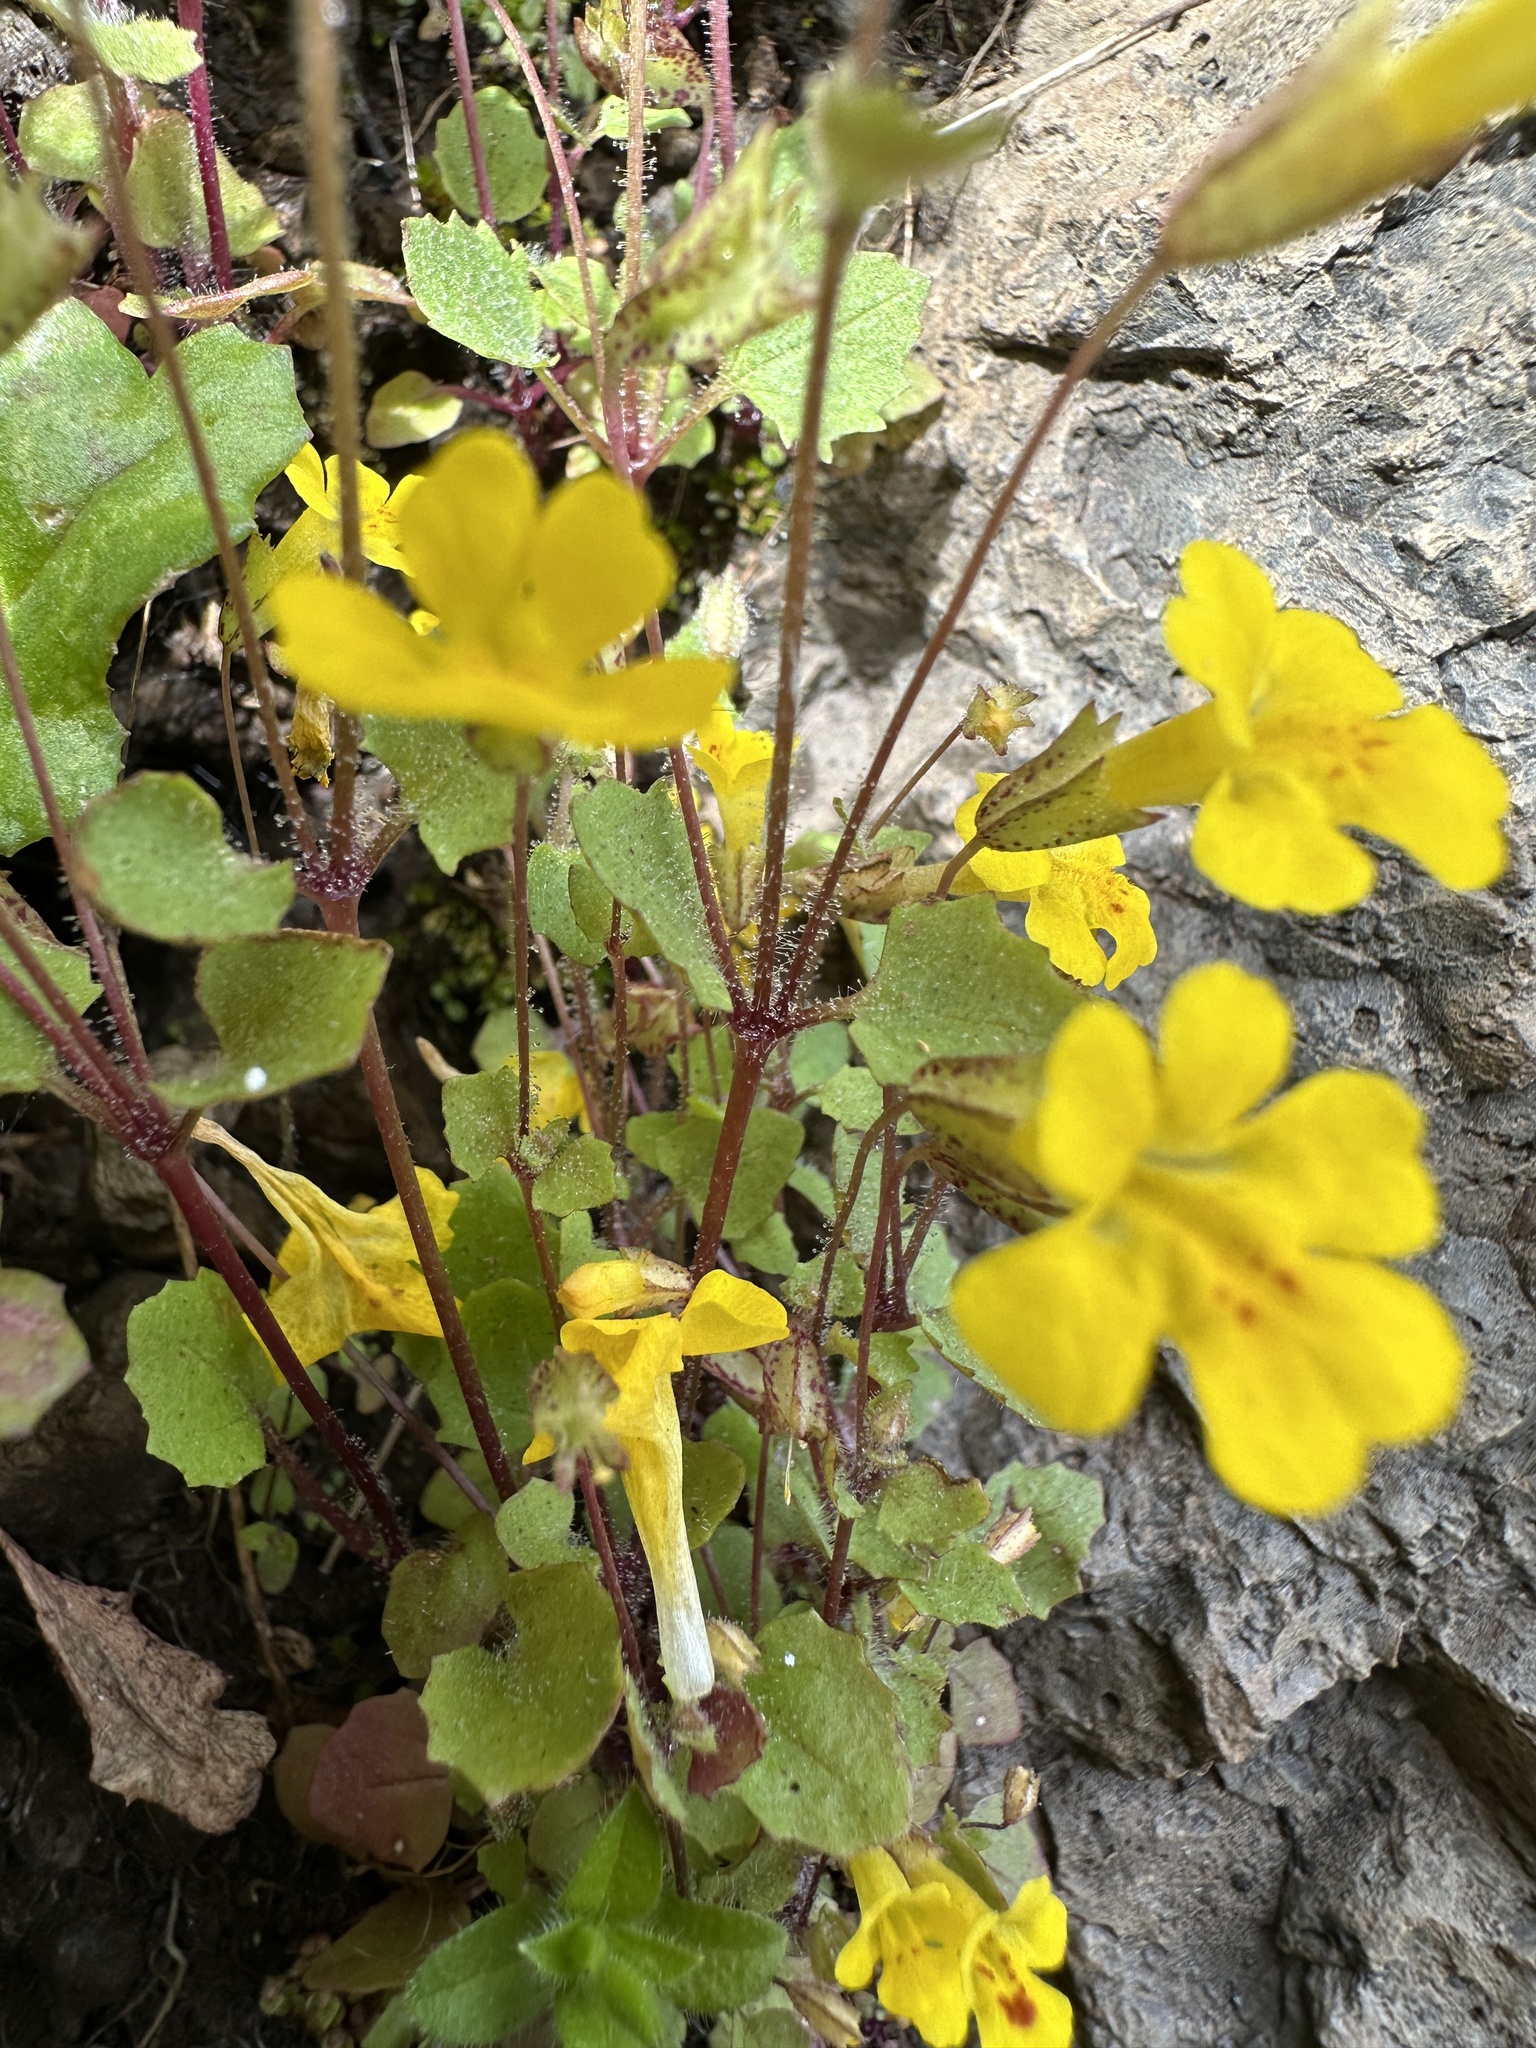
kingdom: Plantae
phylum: Tracheophyta
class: Magnoliopsida
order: Lamiales
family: Phrymaceae
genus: Erythranthe
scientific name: Erythranthe marmorata
